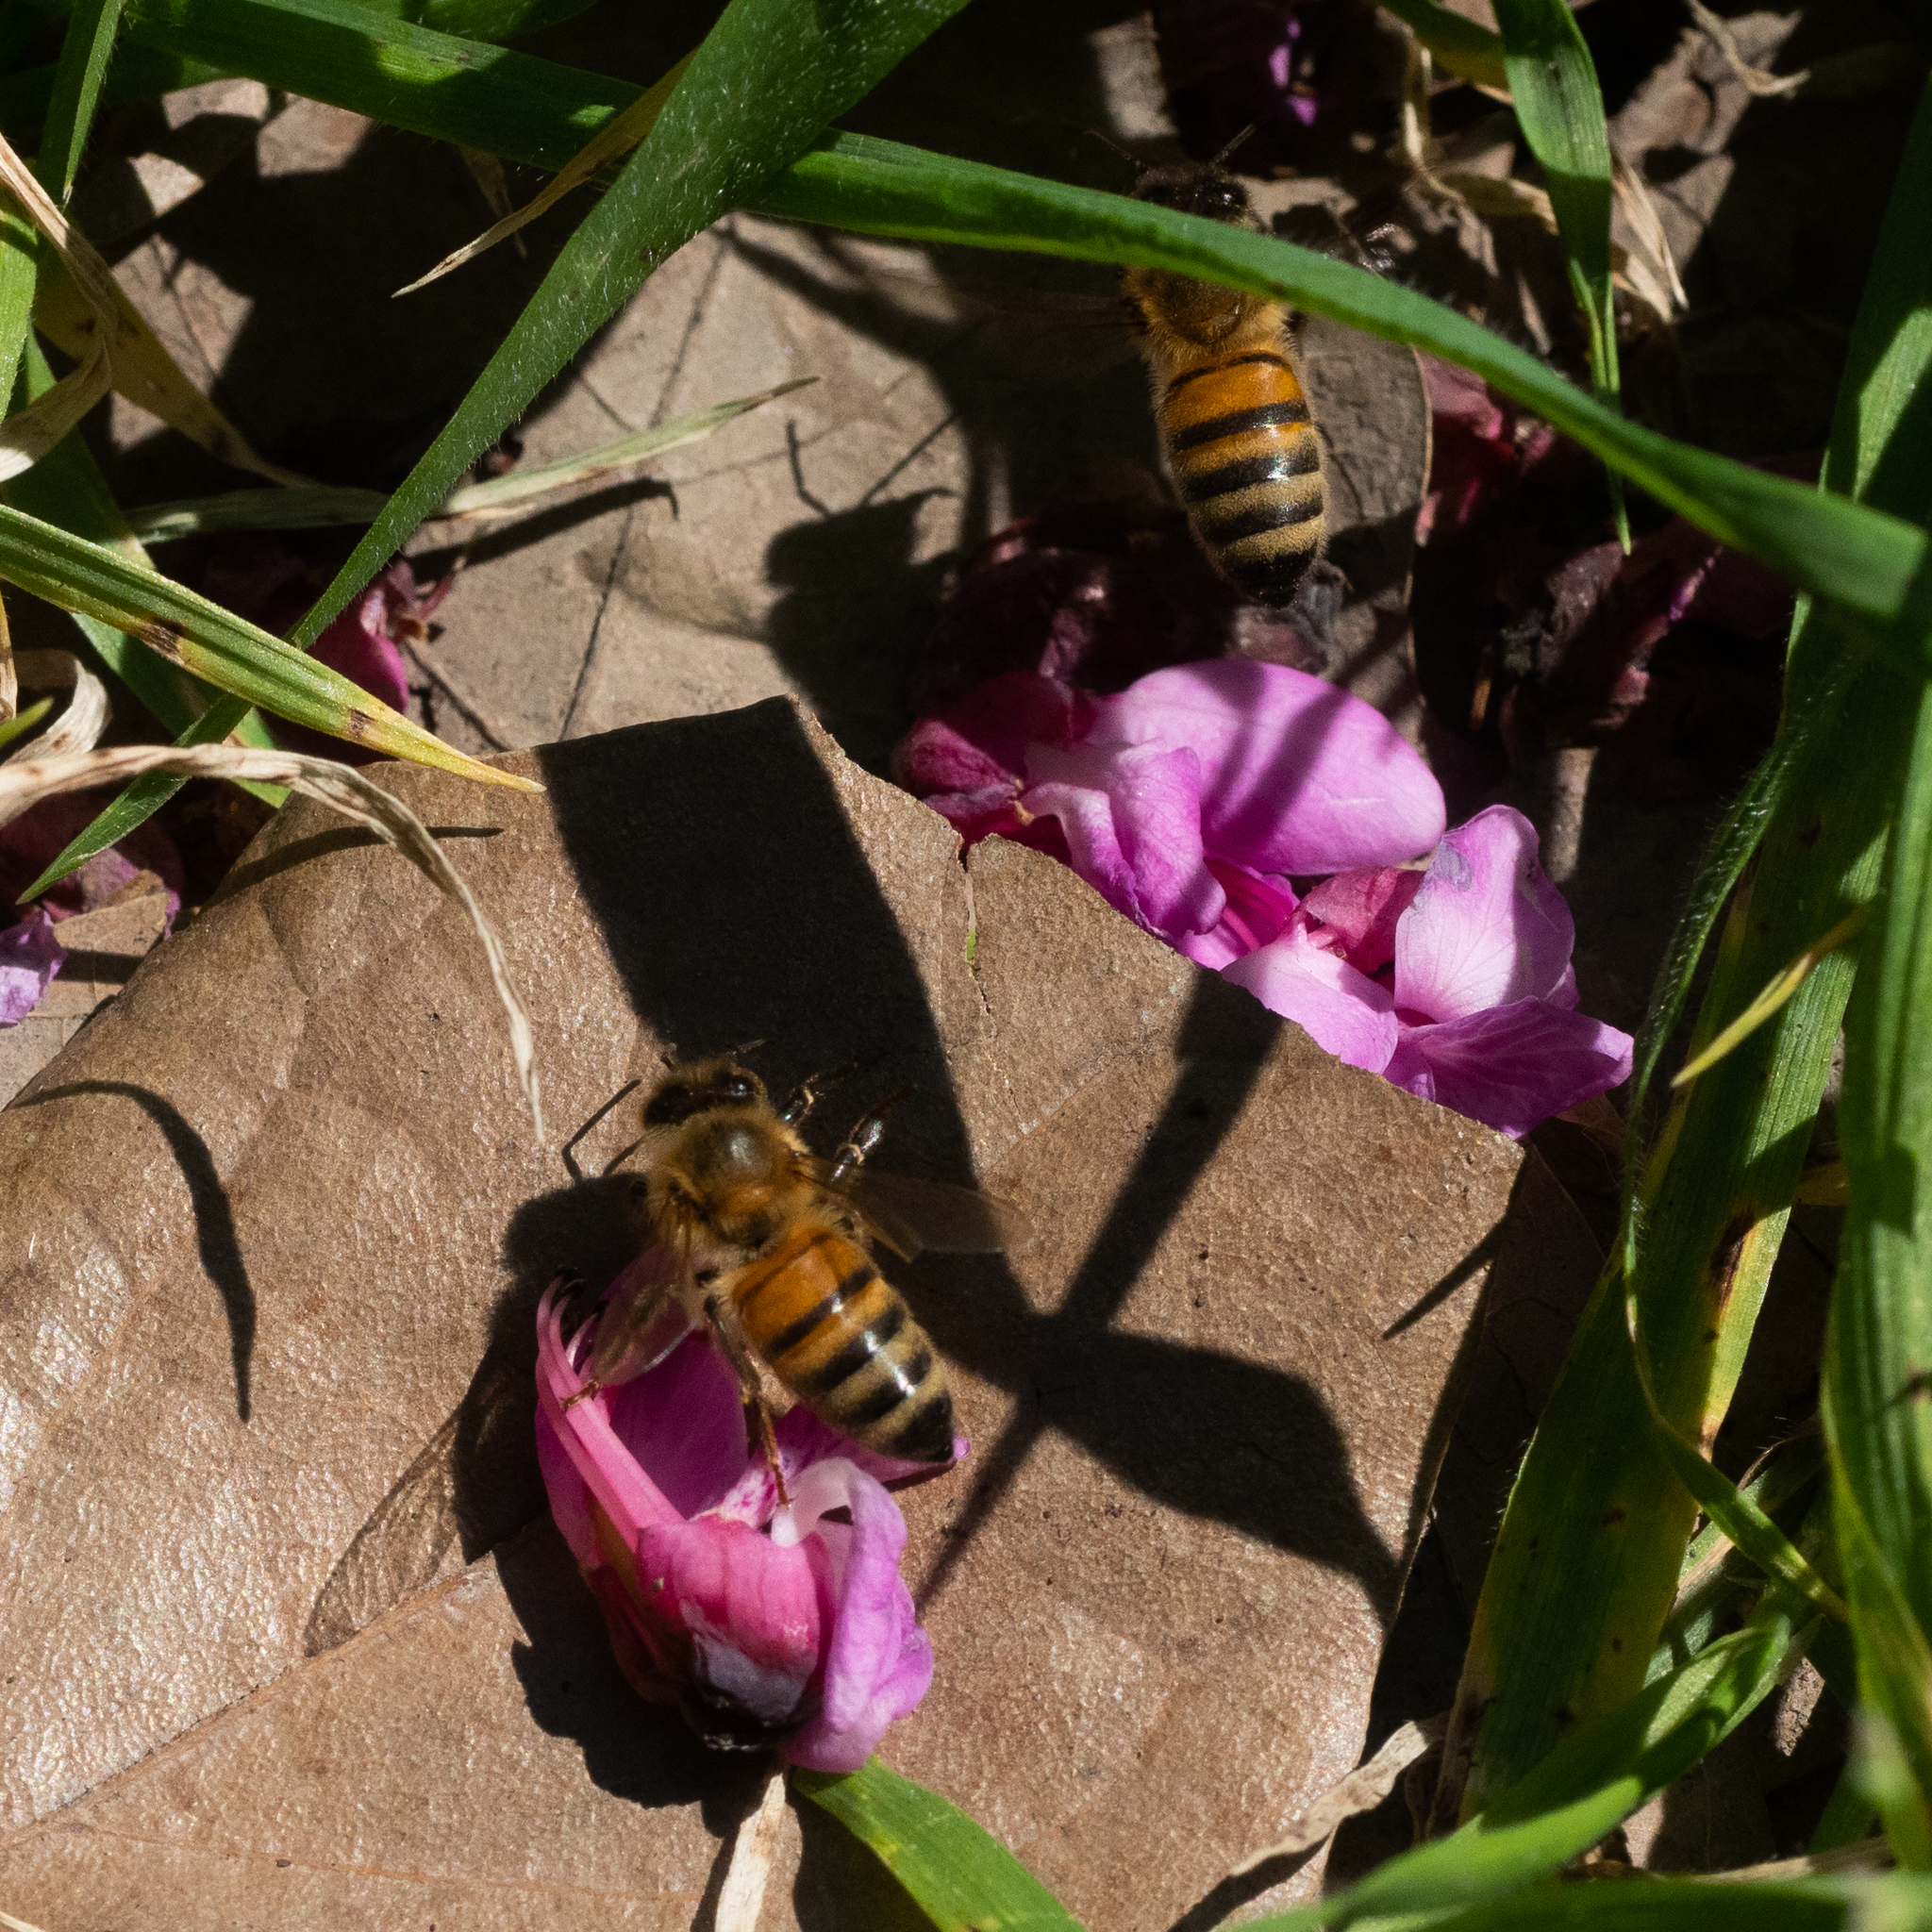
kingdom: Animalia
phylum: Arthropoda
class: Insecta
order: Hymenoptera
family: Apidae
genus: Apis
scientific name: Apis mellifera
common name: Honey bee
